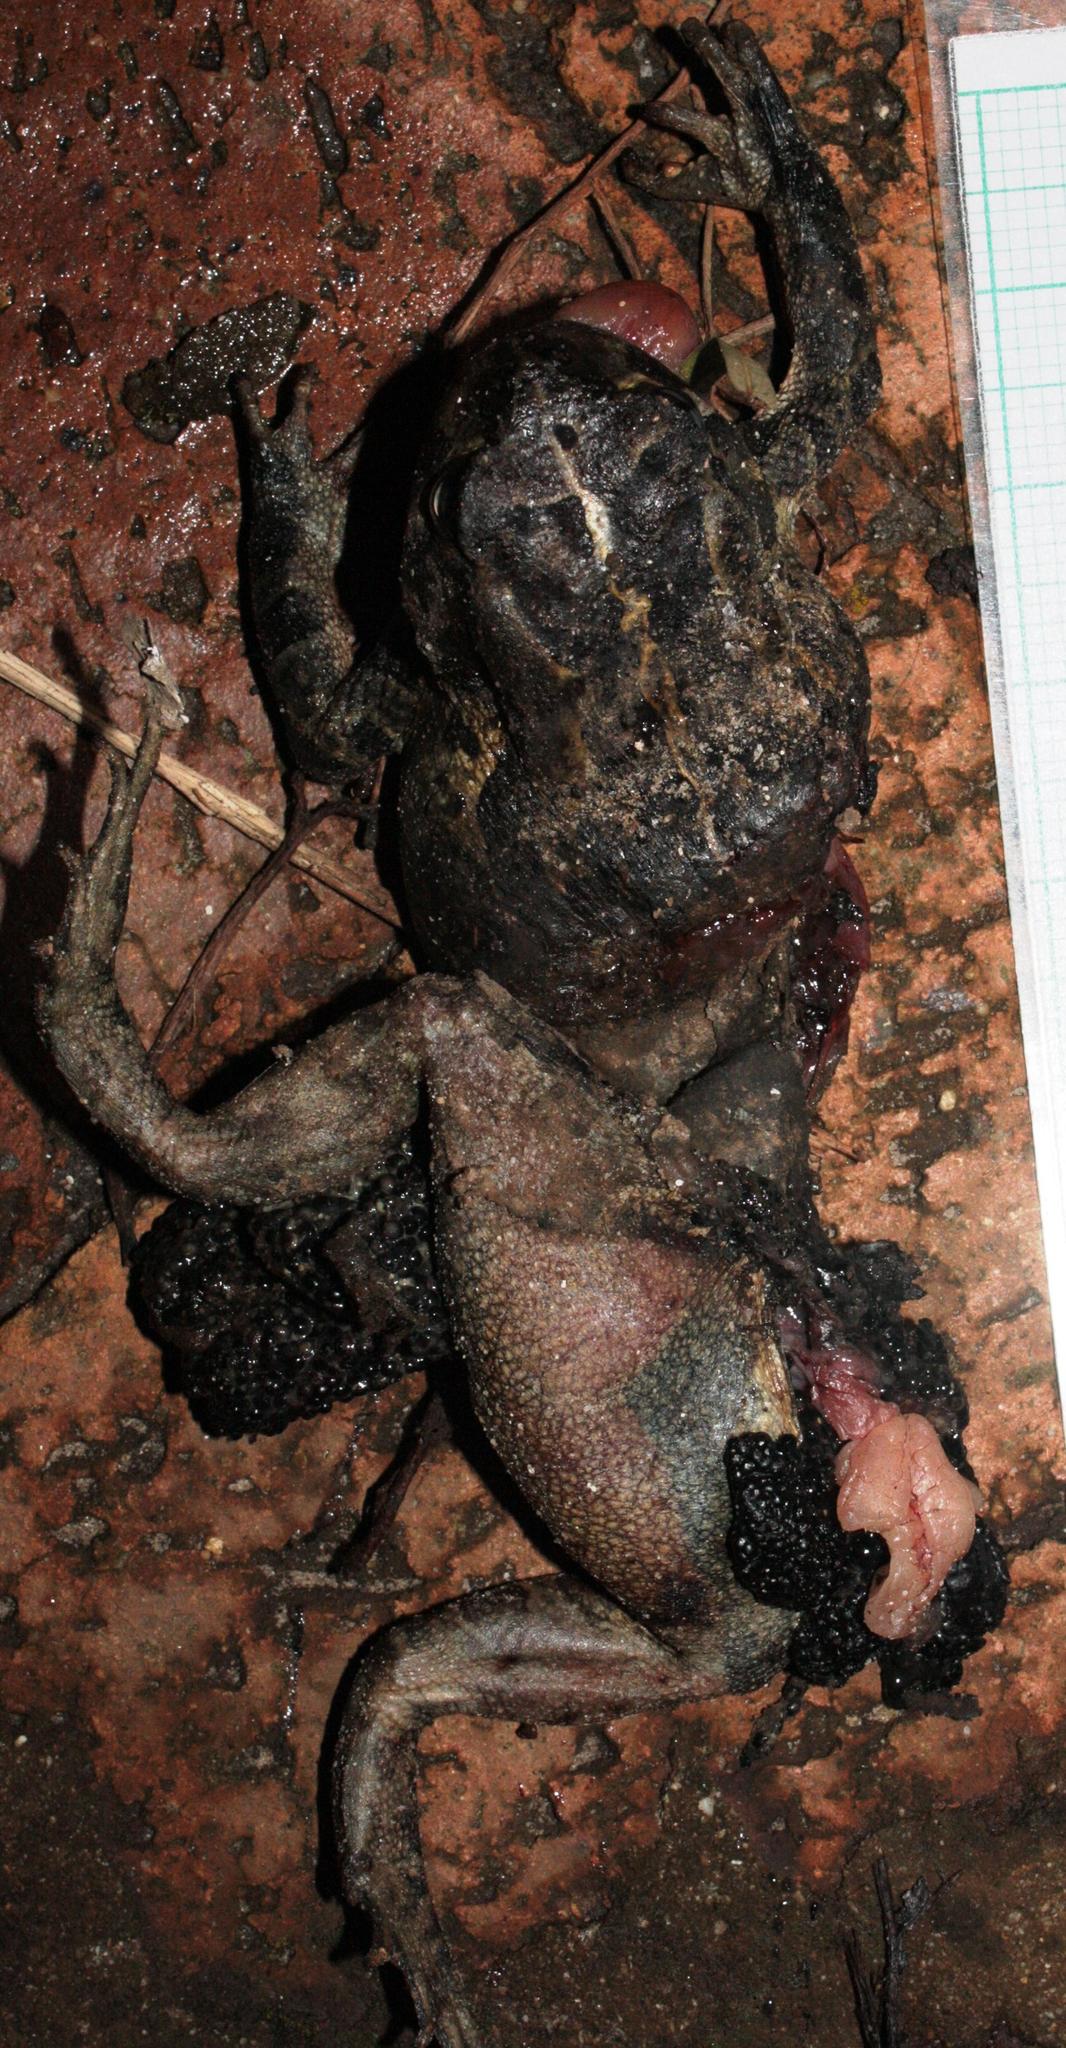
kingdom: Animalia
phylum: Chordata
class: Amphibia
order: Anura
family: Bufonidae
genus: Sclerophrys
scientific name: Sclerophrys pantherina
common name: Panther toad
